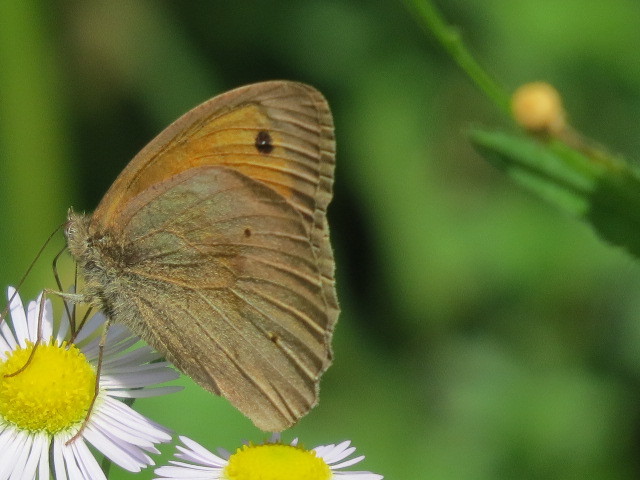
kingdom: Animalia
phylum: Arthropoda
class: Insecta
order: Lepidoptera
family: Nymphalidae
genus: Maniola
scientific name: Maniola jurtina
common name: Meadow brown
